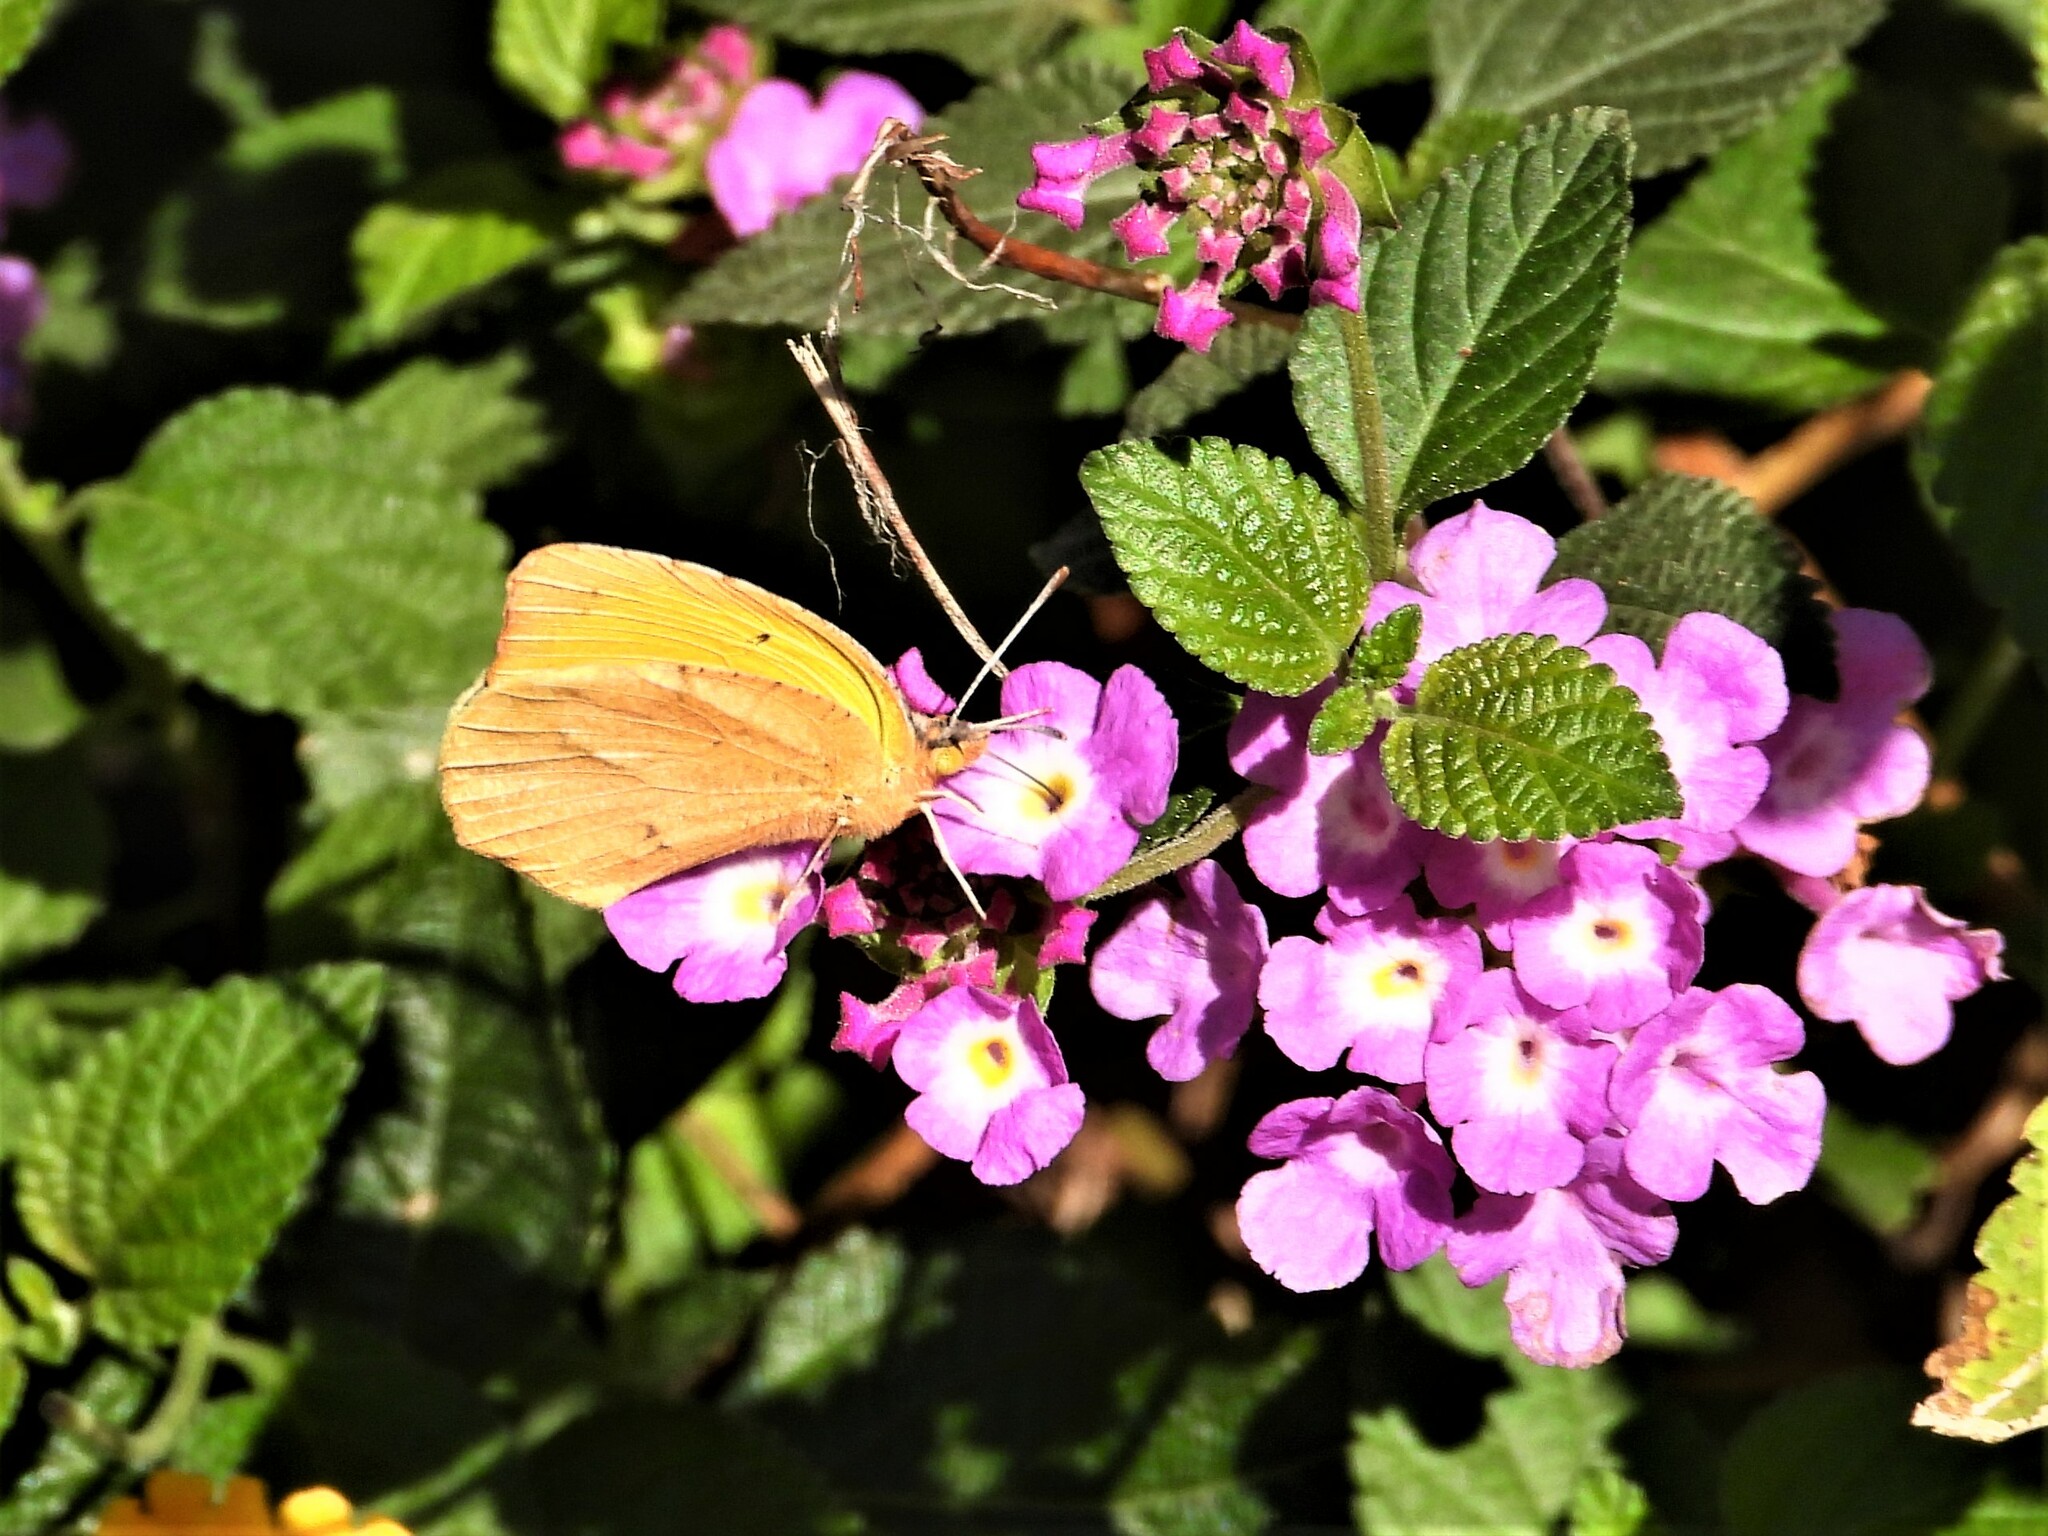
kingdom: Animalia
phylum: Arthropoda
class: Insecta
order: Lepidoptera
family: Pieridae
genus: Abaeis
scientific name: Abaeis nicippe
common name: Sleepy orange
